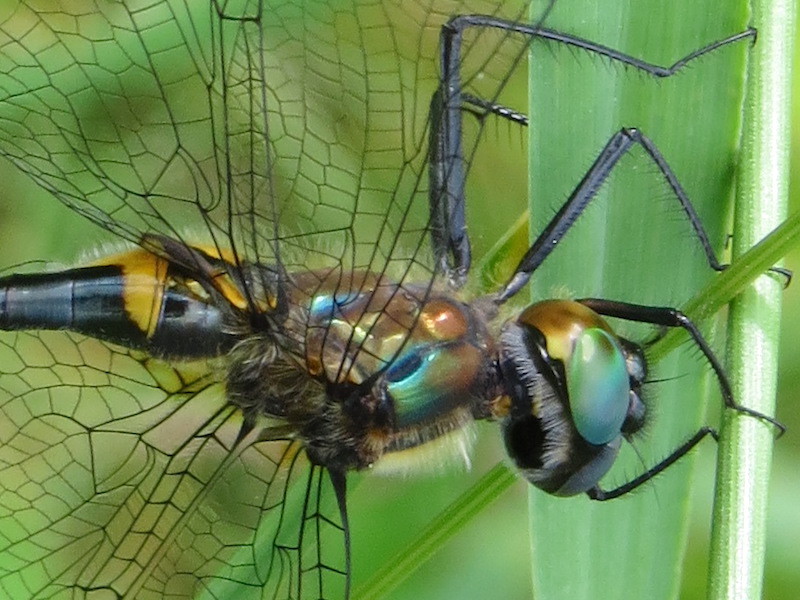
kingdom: Animalia
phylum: Arthropoda
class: Insecta
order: Odonata
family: Corduliidae
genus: Dorocordulia
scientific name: Dorocordulia libera
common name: Racket-tailed emerald
